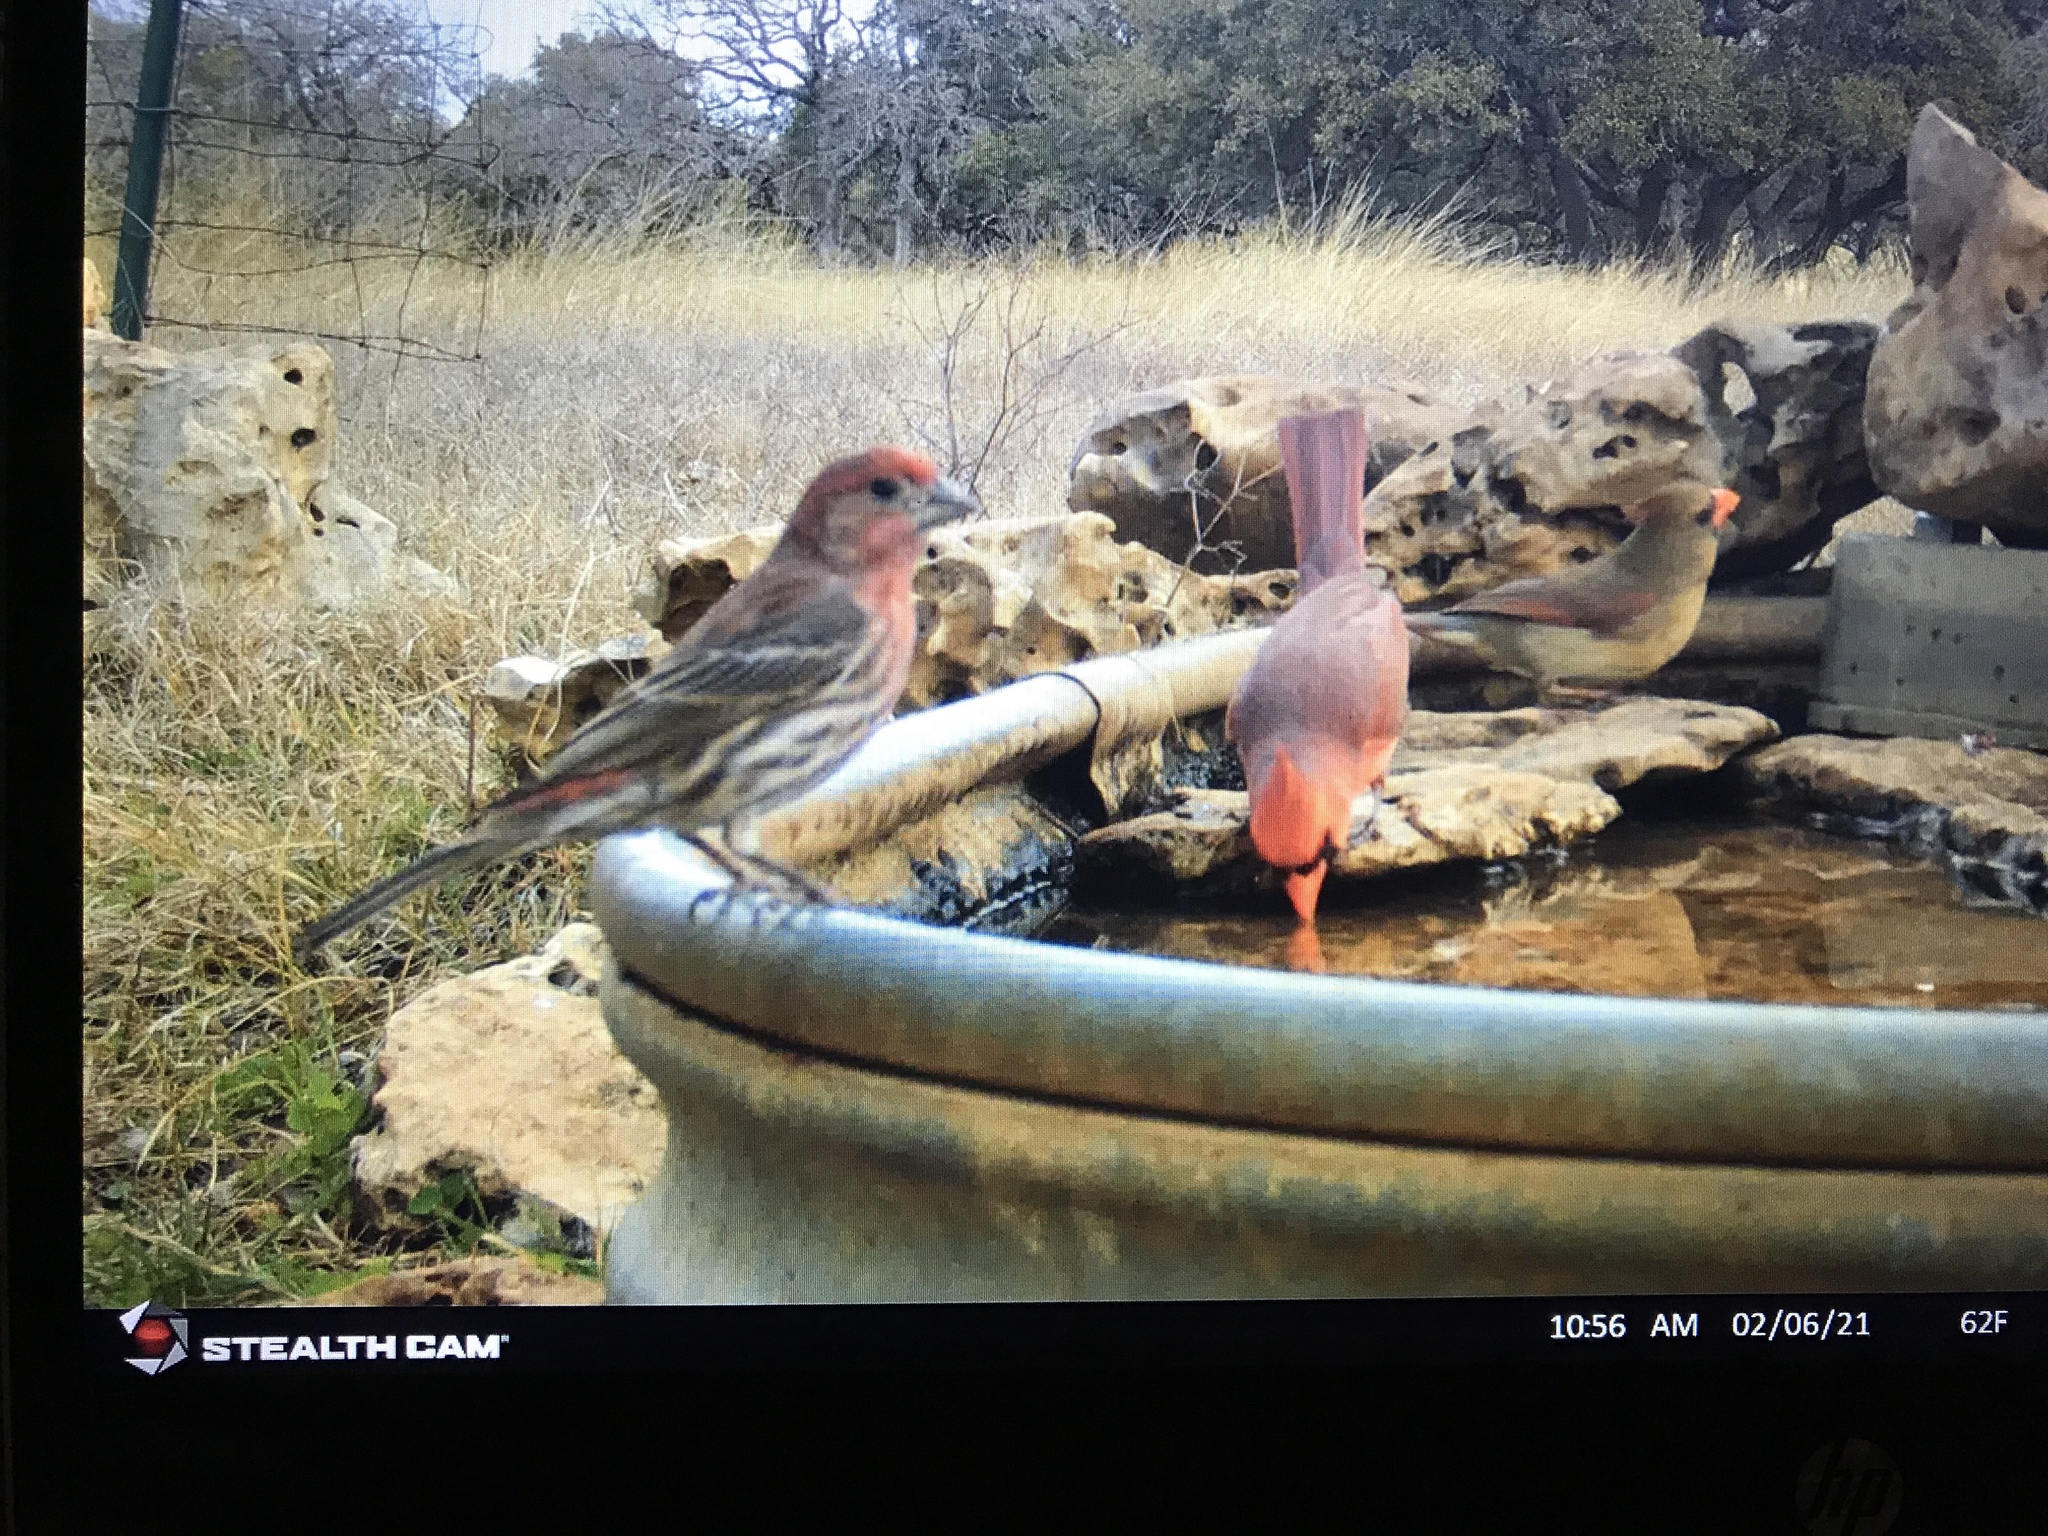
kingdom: Animalia
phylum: Chordata
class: Aves
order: Passeriformes
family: Fringillidae
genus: Haemorhous
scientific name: Haemorhous mexicanus
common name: House finch
